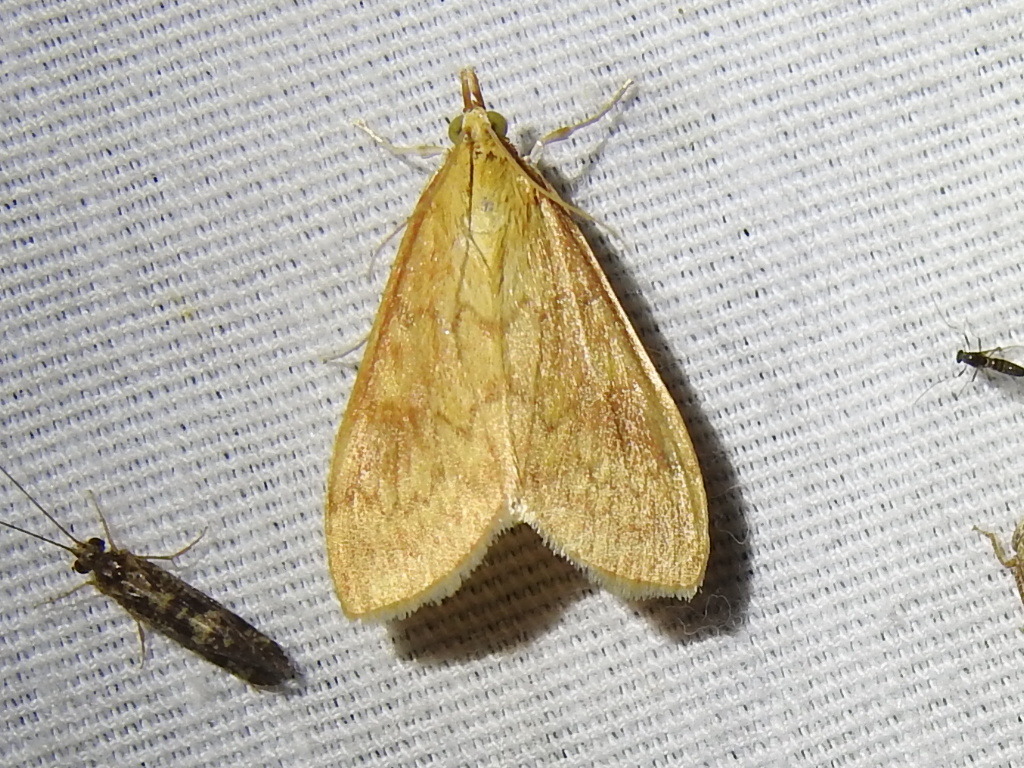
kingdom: Animalia
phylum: Arthropoda
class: Insecta
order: Lepidoptera
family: Crambidae
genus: Ostrinia
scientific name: Ostrinia penitalis
